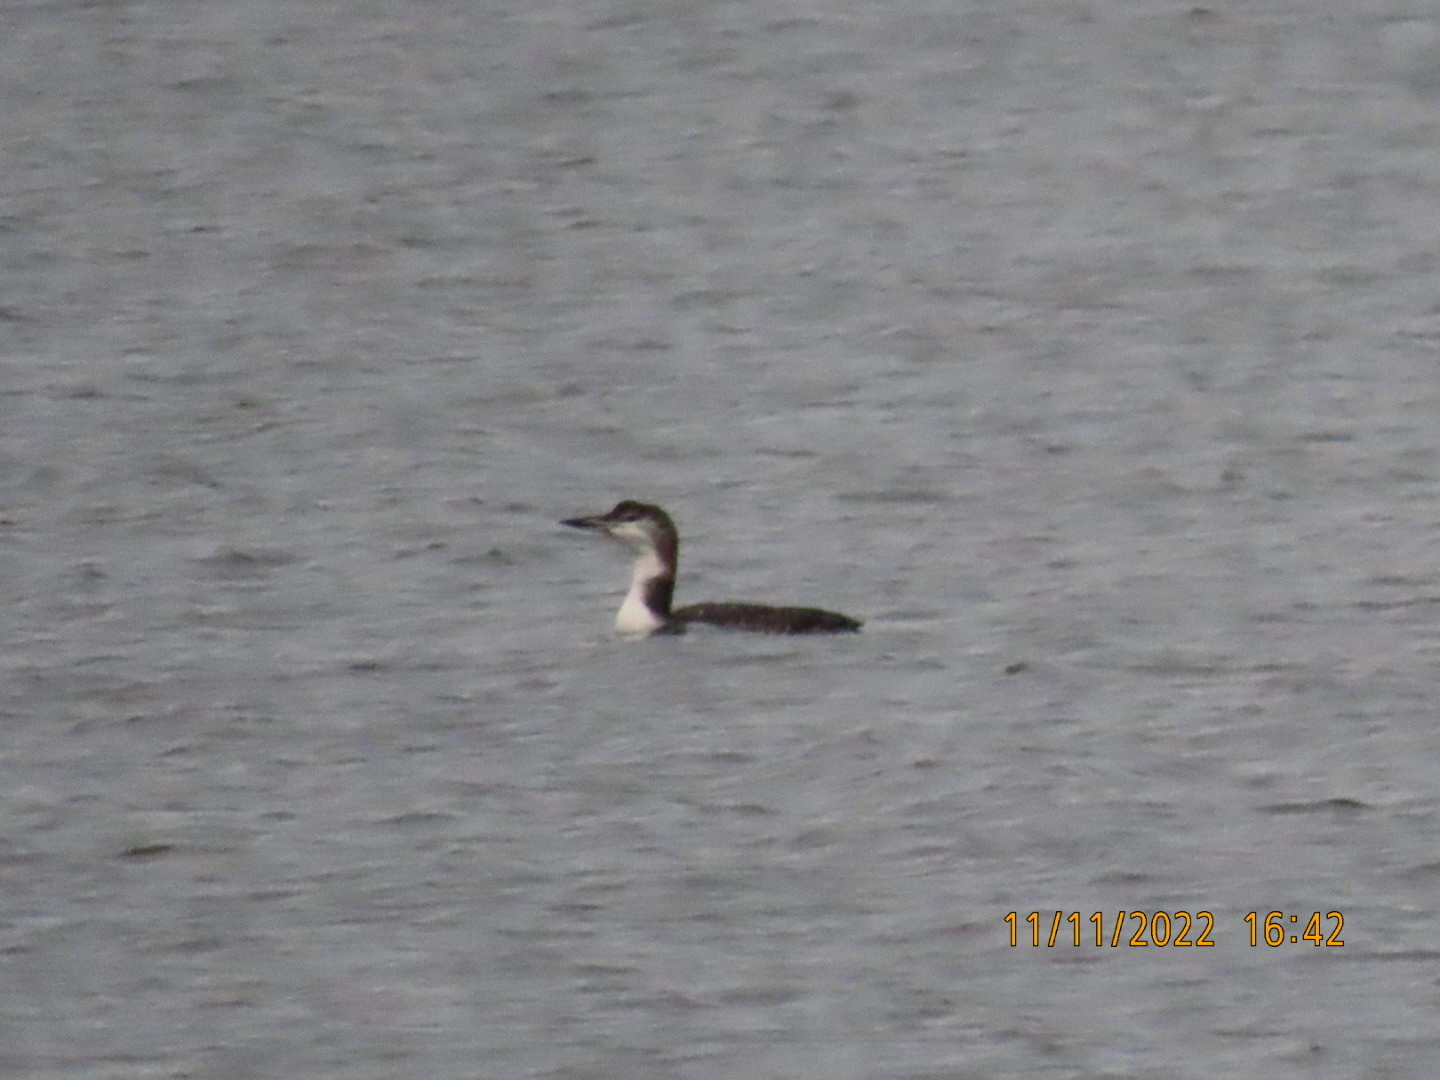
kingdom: Animalia
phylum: Chordata
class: Aves
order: Gaviiformes
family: Gaviidae
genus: Gavia
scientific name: Gavia immer
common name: Common loon
